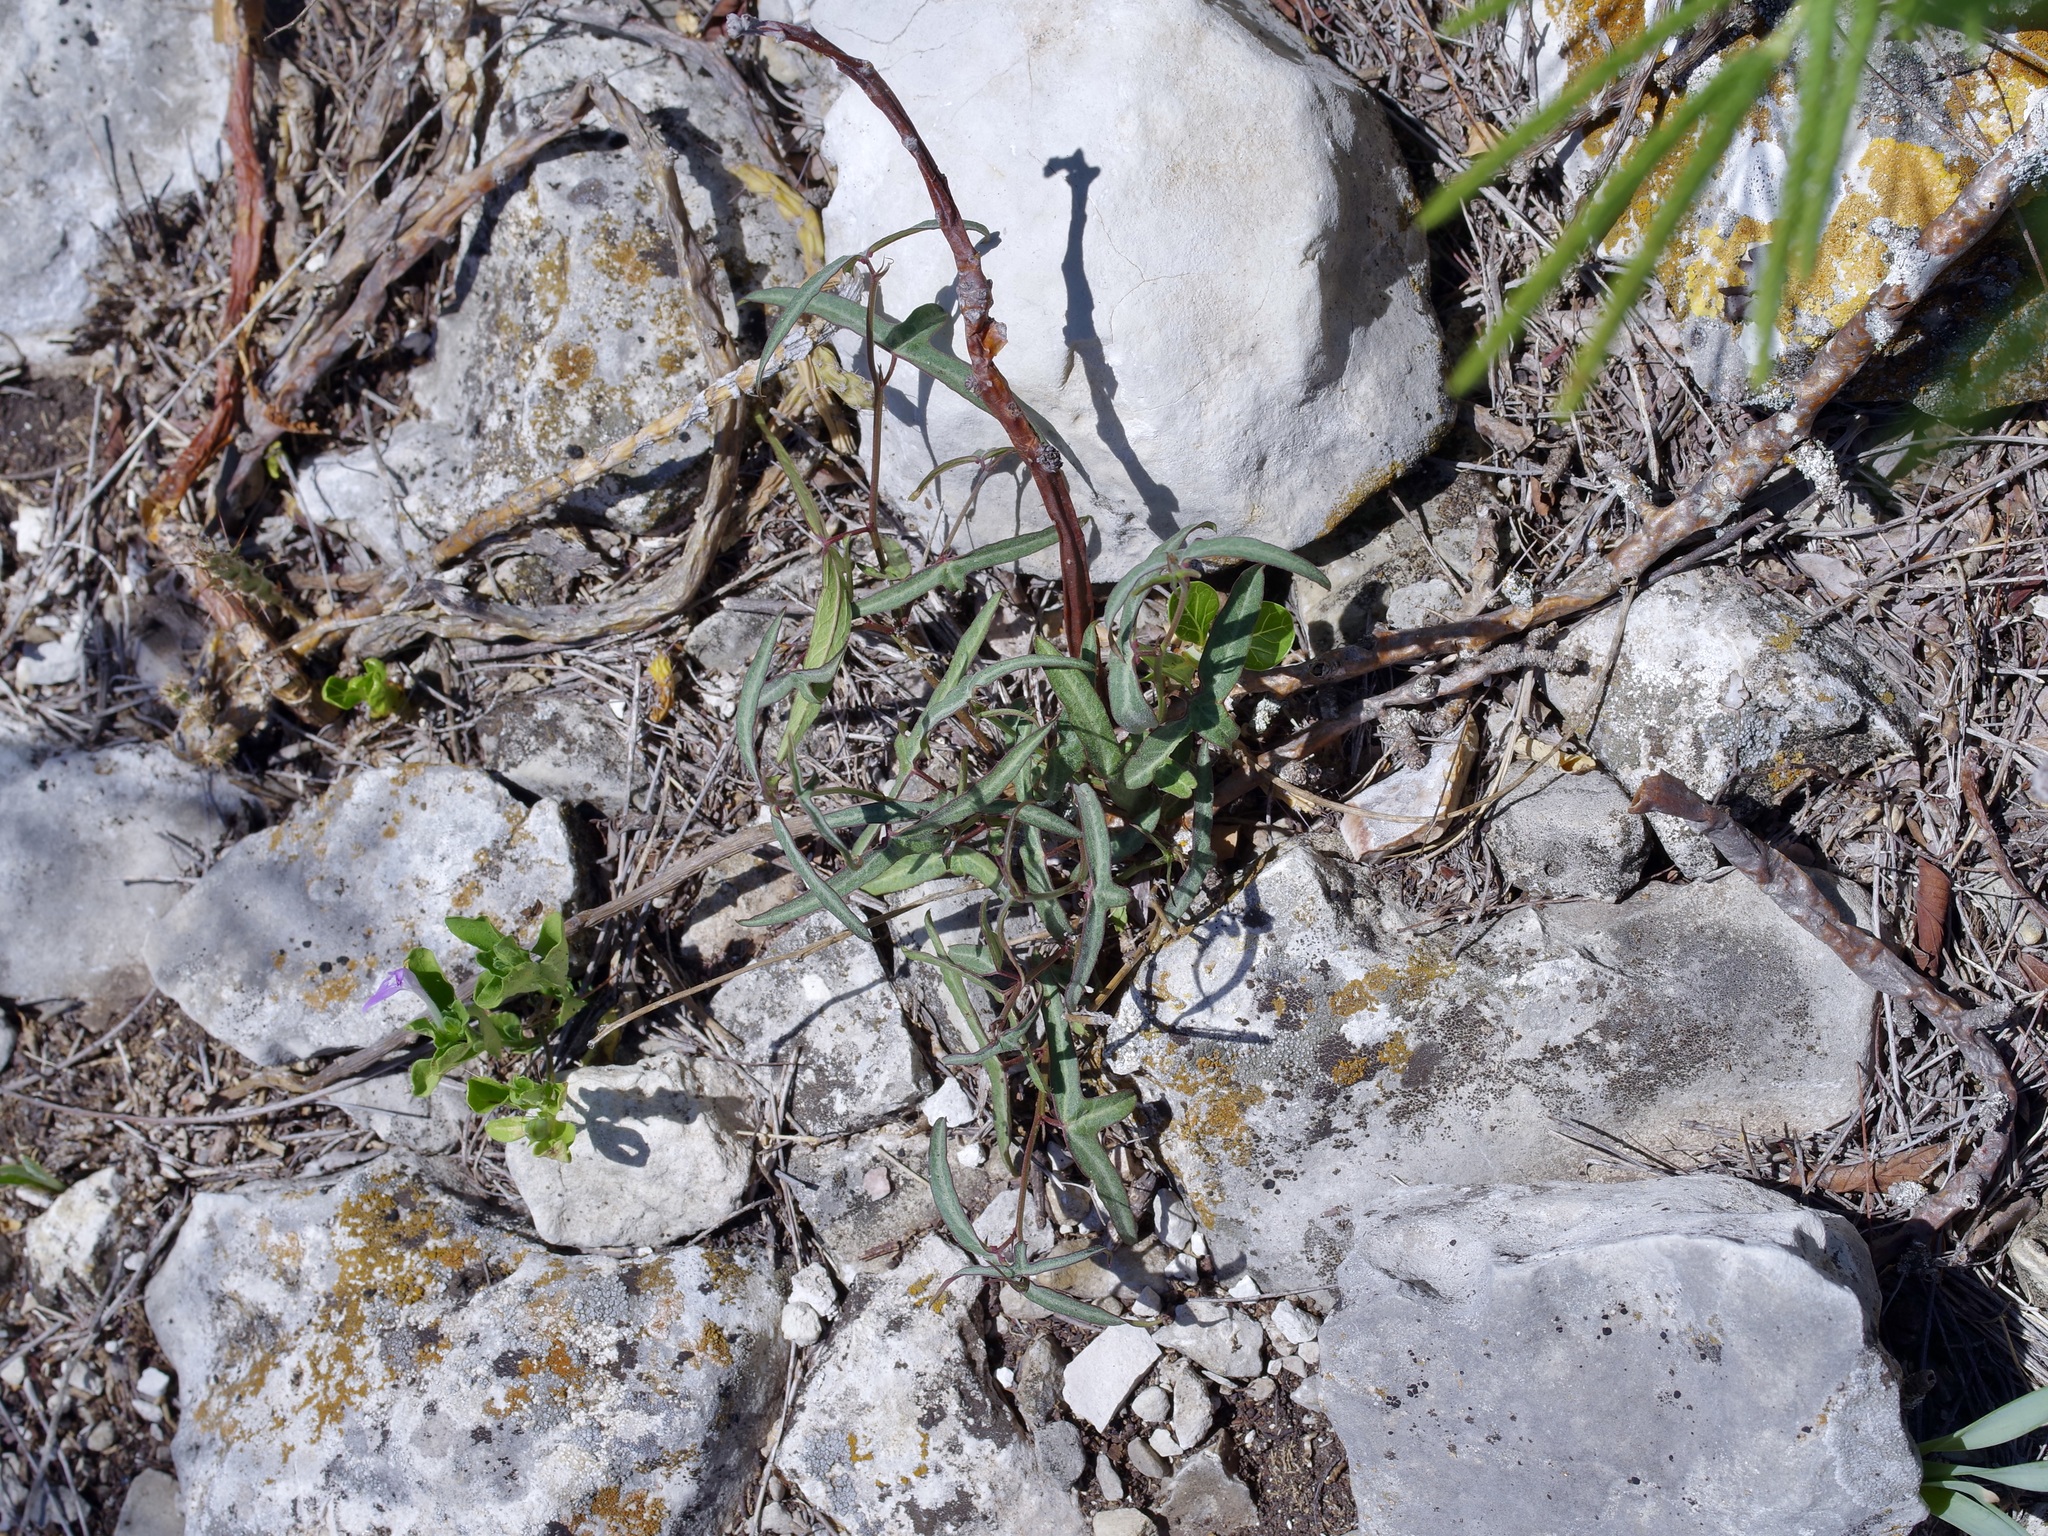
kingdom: Plantae
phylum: Tracheophyta
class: Magnoliopsida
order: Malpighiales
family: Passifloraceae
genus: Passiflora
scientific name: Passiflora tenuiloba
